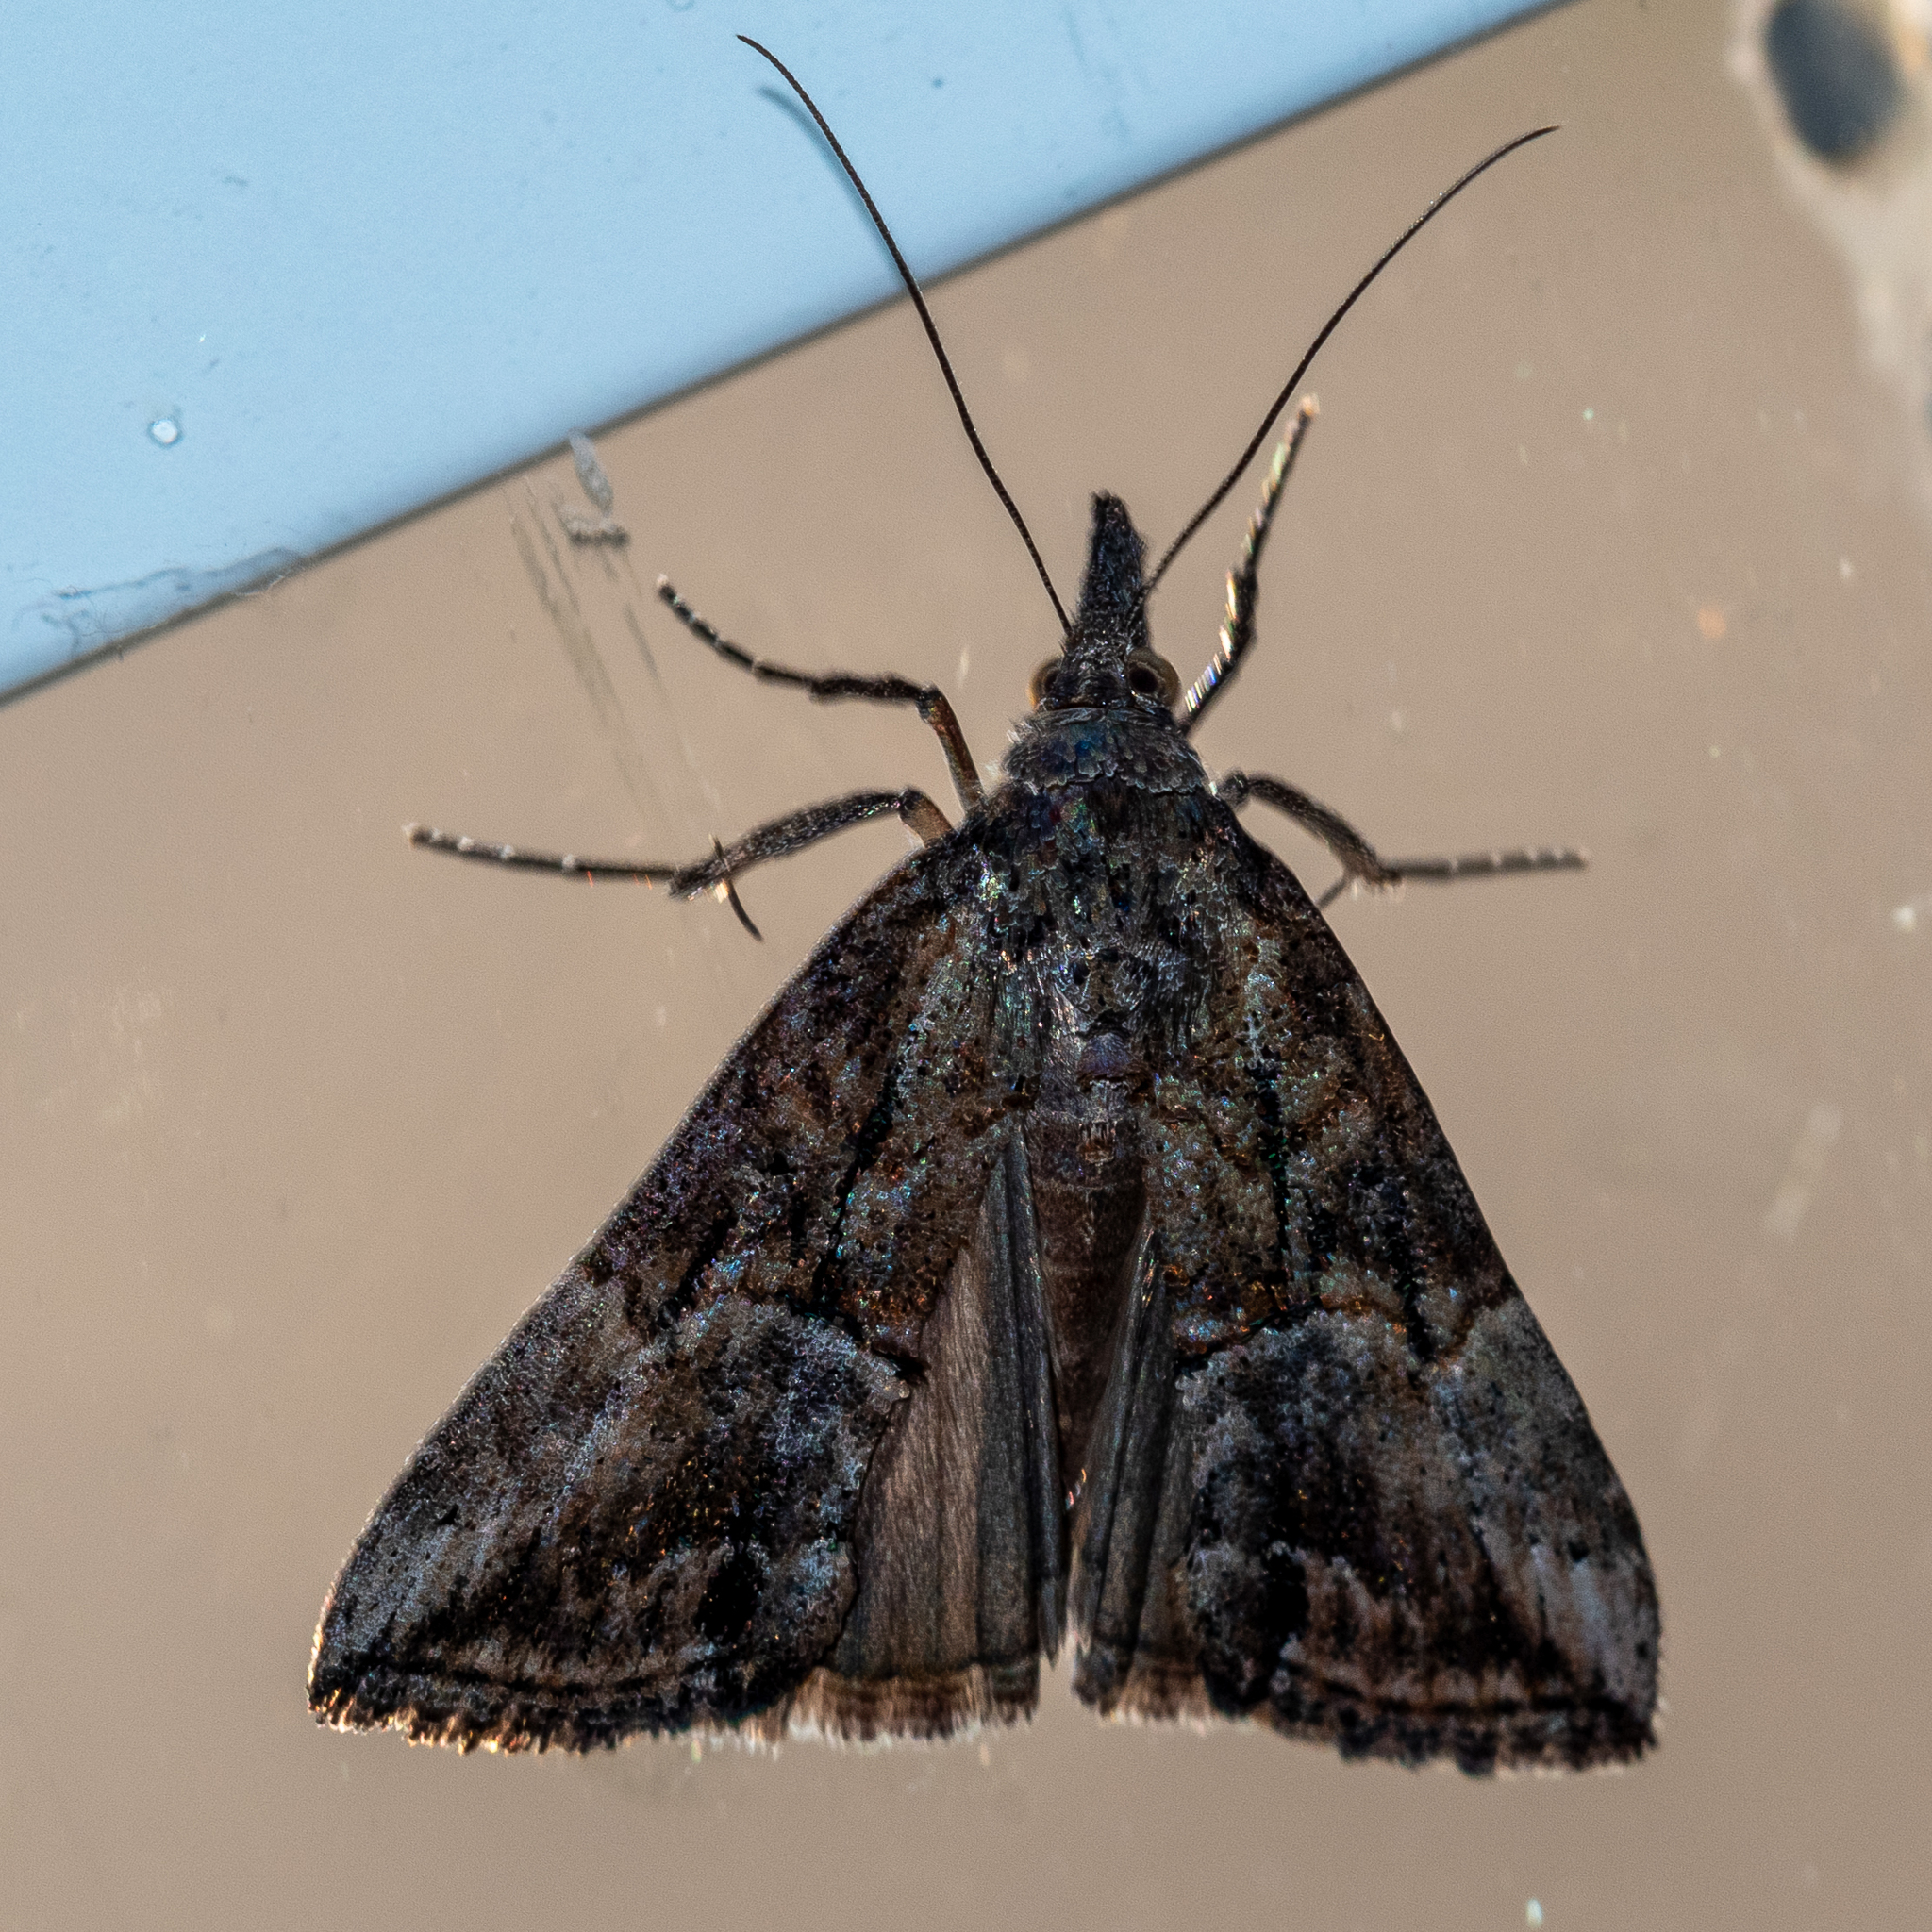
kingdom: Animalia
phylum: Arthropoda
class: Insecta
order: Lepidoptera
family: Erebidae
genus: Hypena
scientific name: Hypena scabra
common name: Green cloverworm
